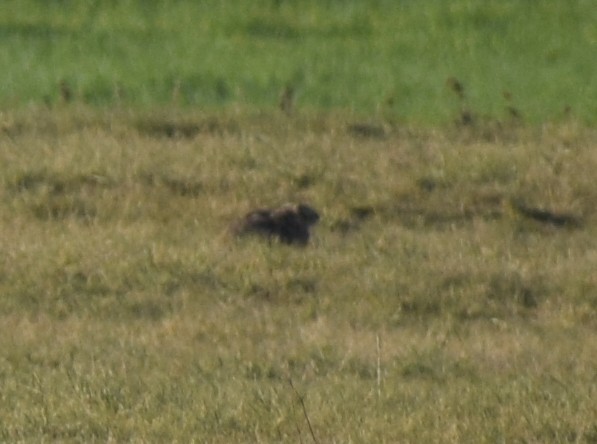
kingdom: Animalia
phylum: Chordata
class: Mammalia
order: Lagomorpha
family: Leporidae
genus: Lepus
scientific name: Lepus europaeus
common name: European hare
